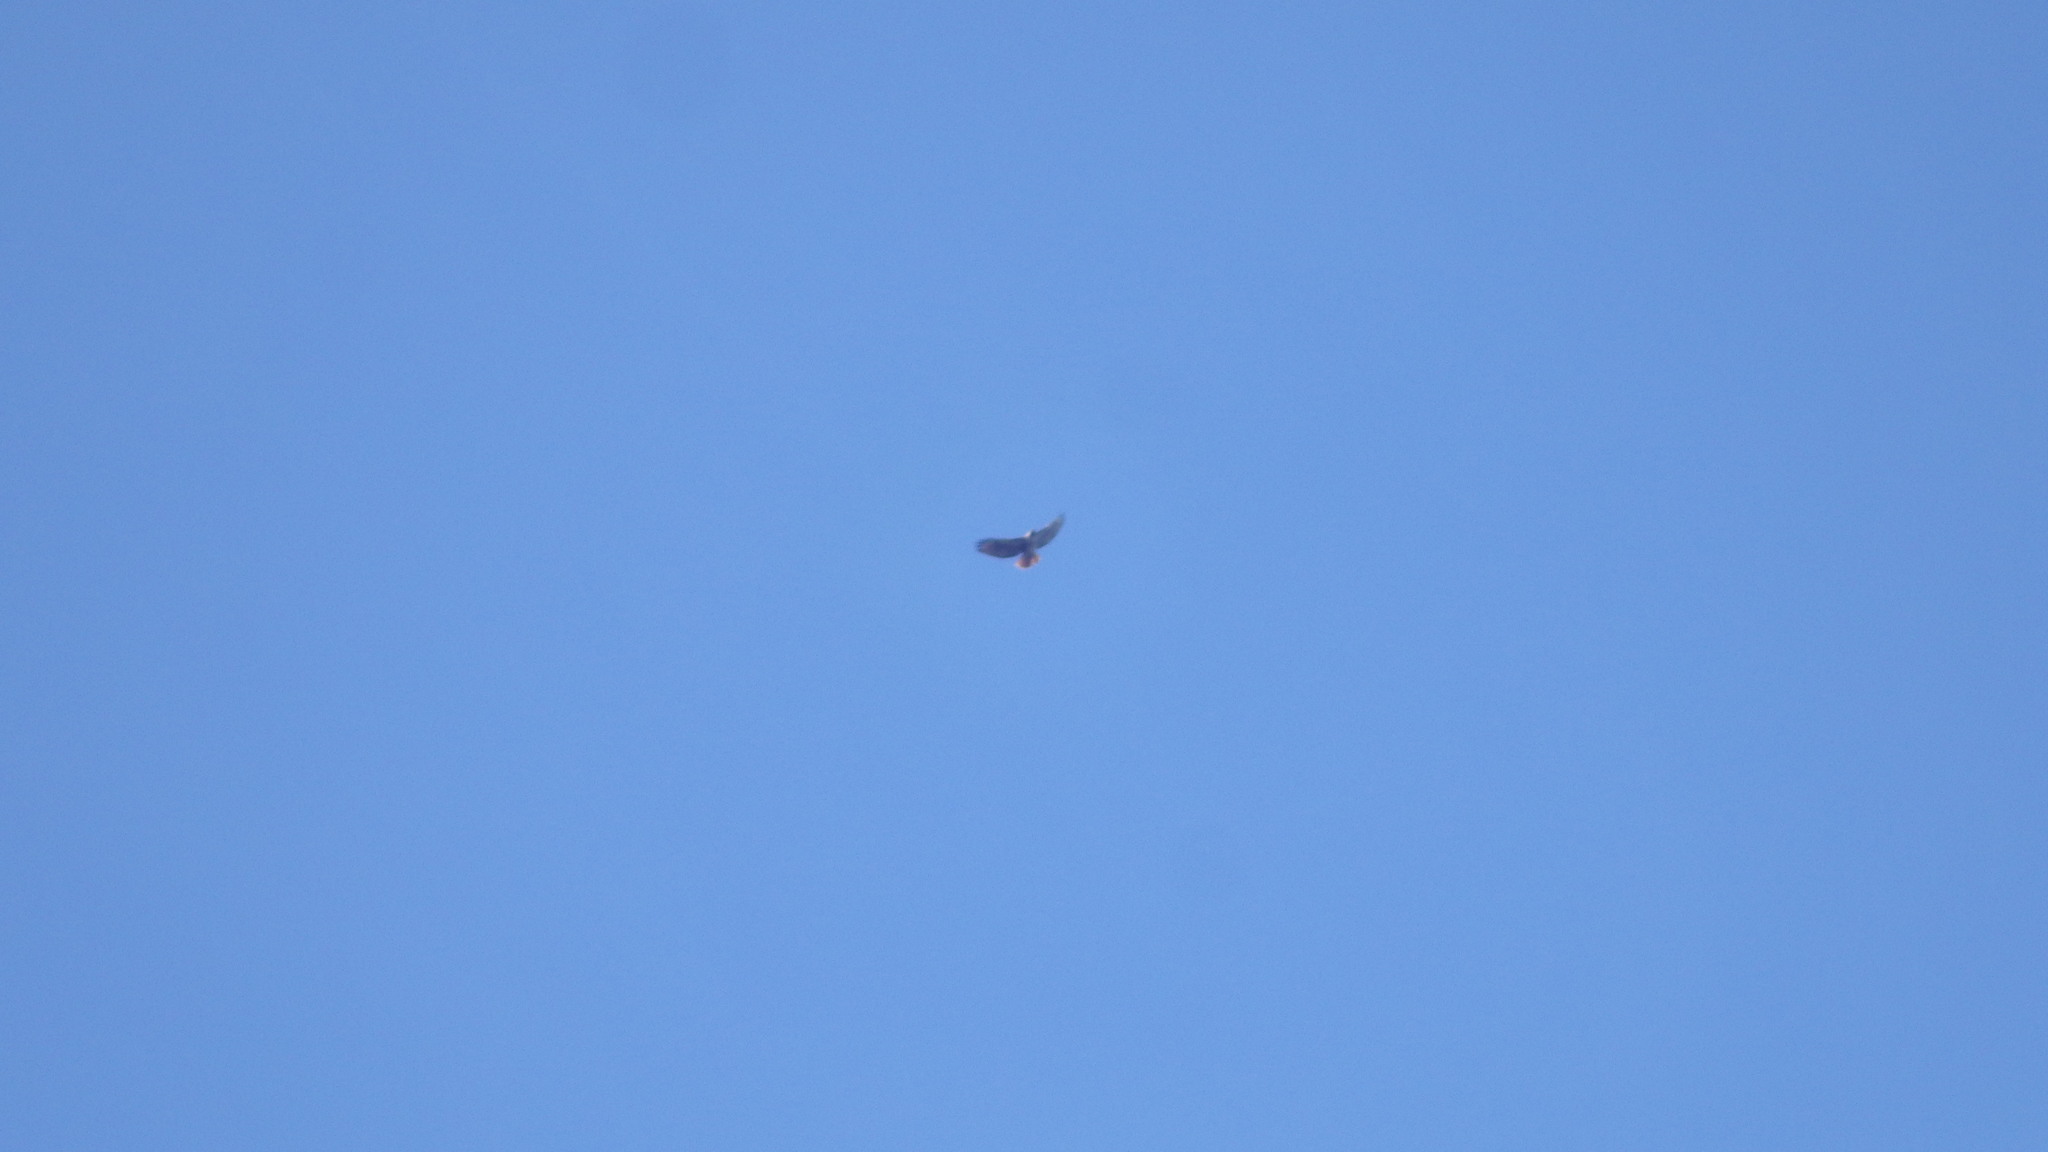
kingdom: Animalia
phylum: Chordata
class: Aves
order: Accipitriformes
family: Accipitridae
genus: Buteo
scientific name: Buteo jamaicensis
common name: Red-tailed hawk
